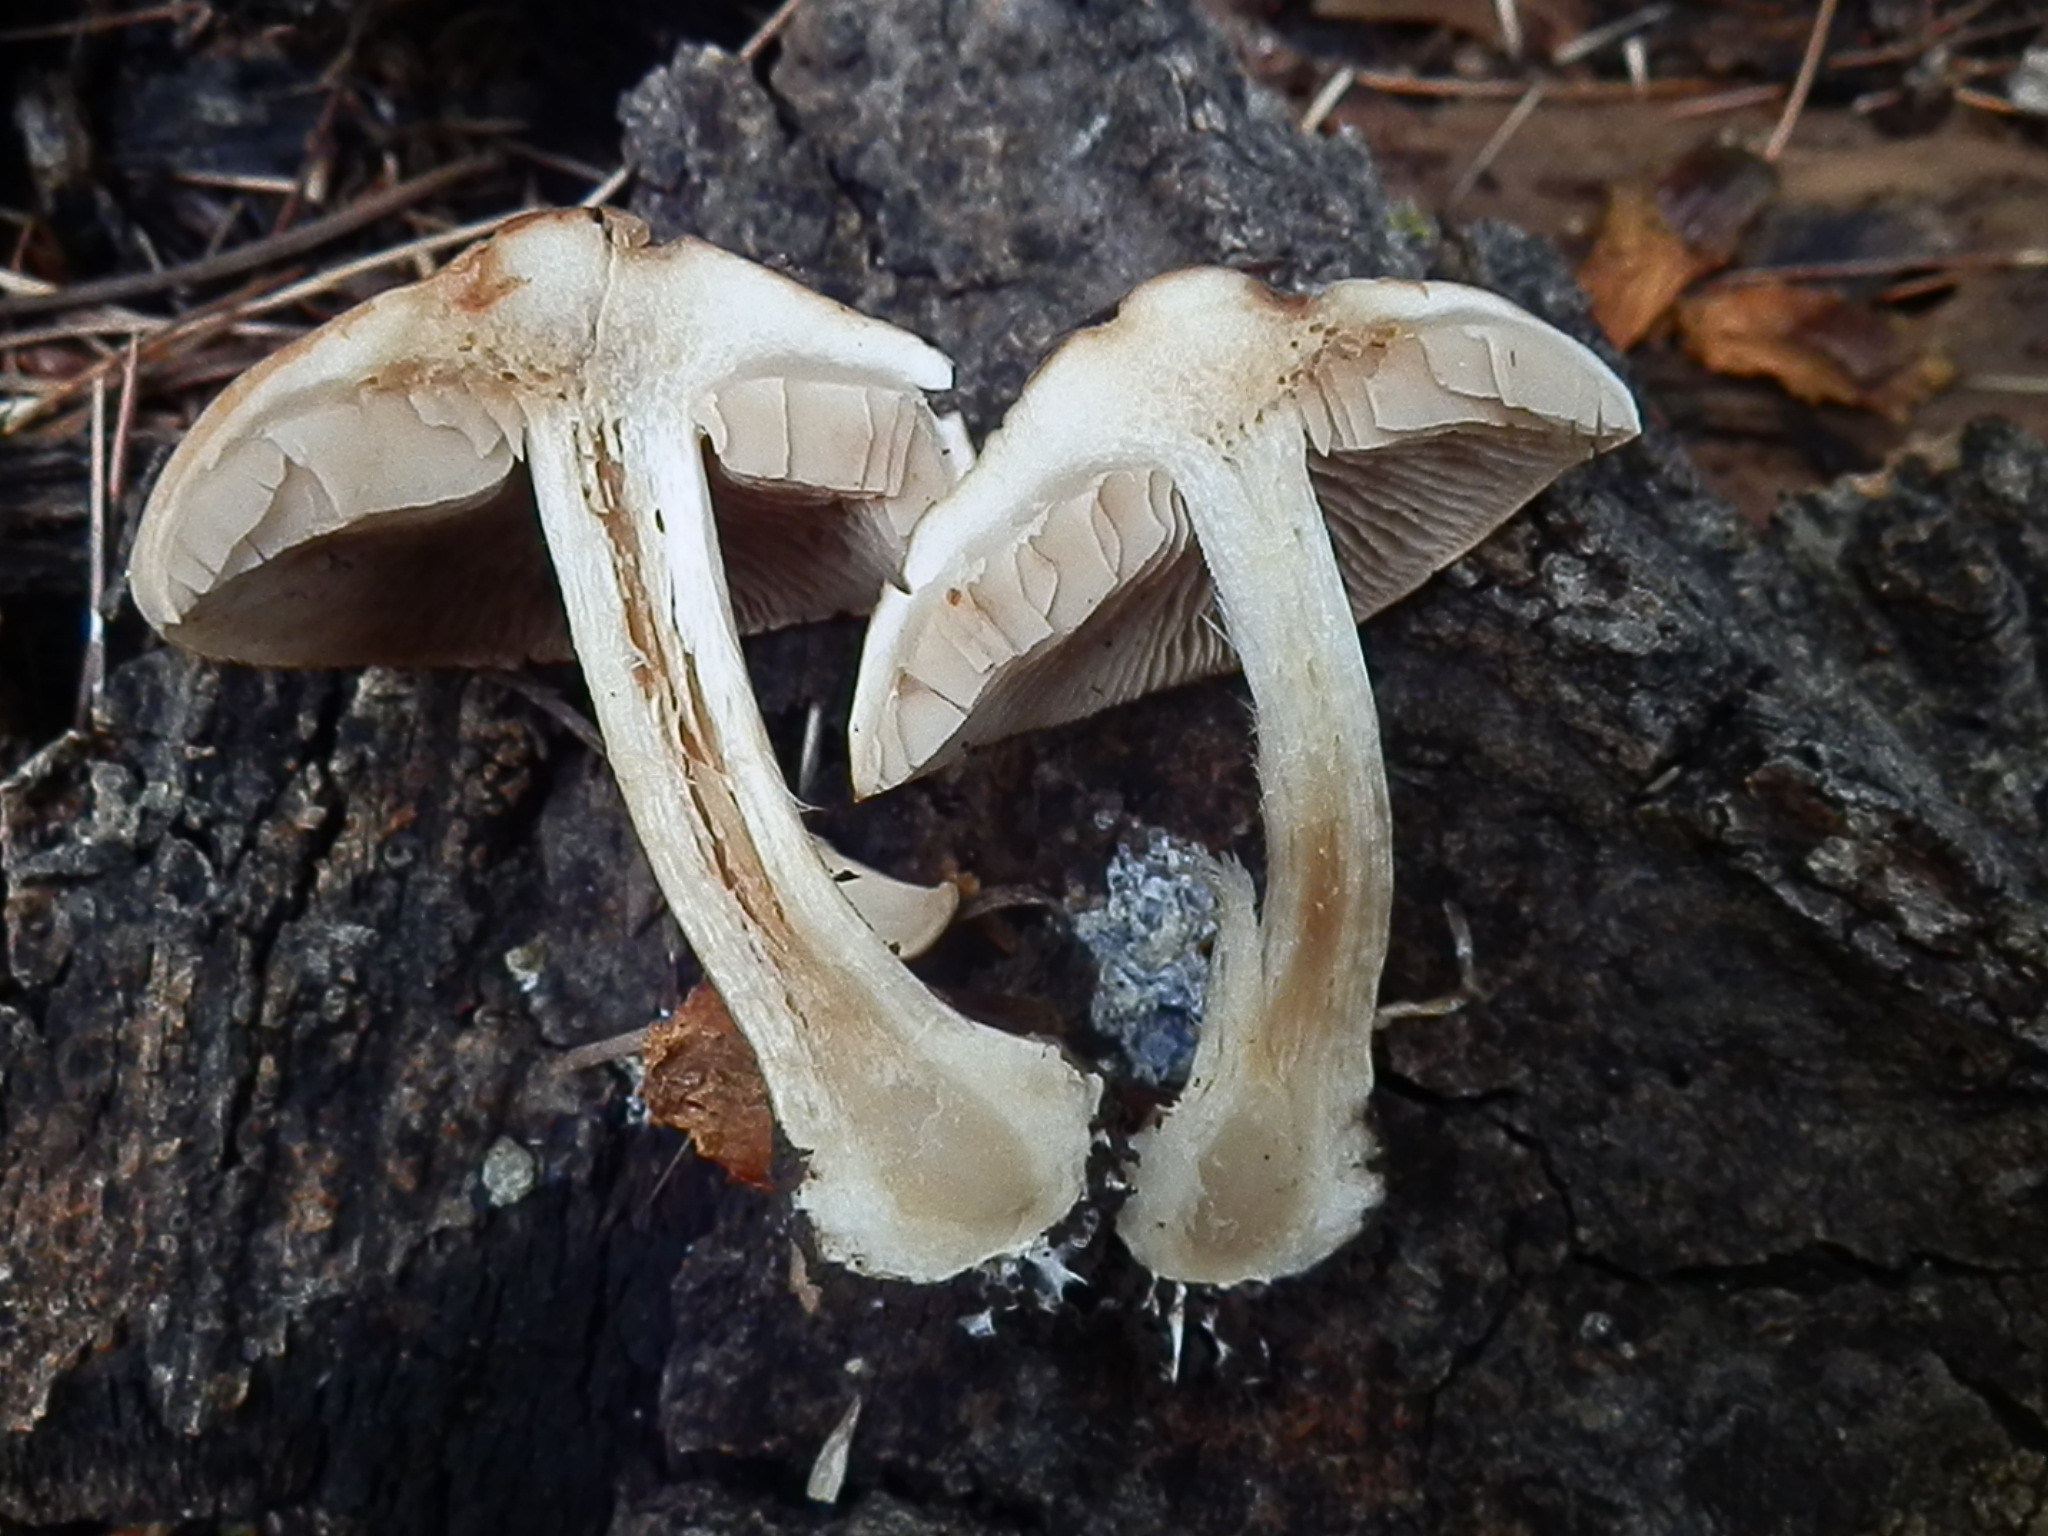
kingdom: Fungi
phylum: Basidiomycota
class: Agaricomycetes
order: Agaricales
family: Hymenogastraceae
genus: Hebeloma
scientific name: Hebeloma leucosarx
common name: Birch poisonpie
